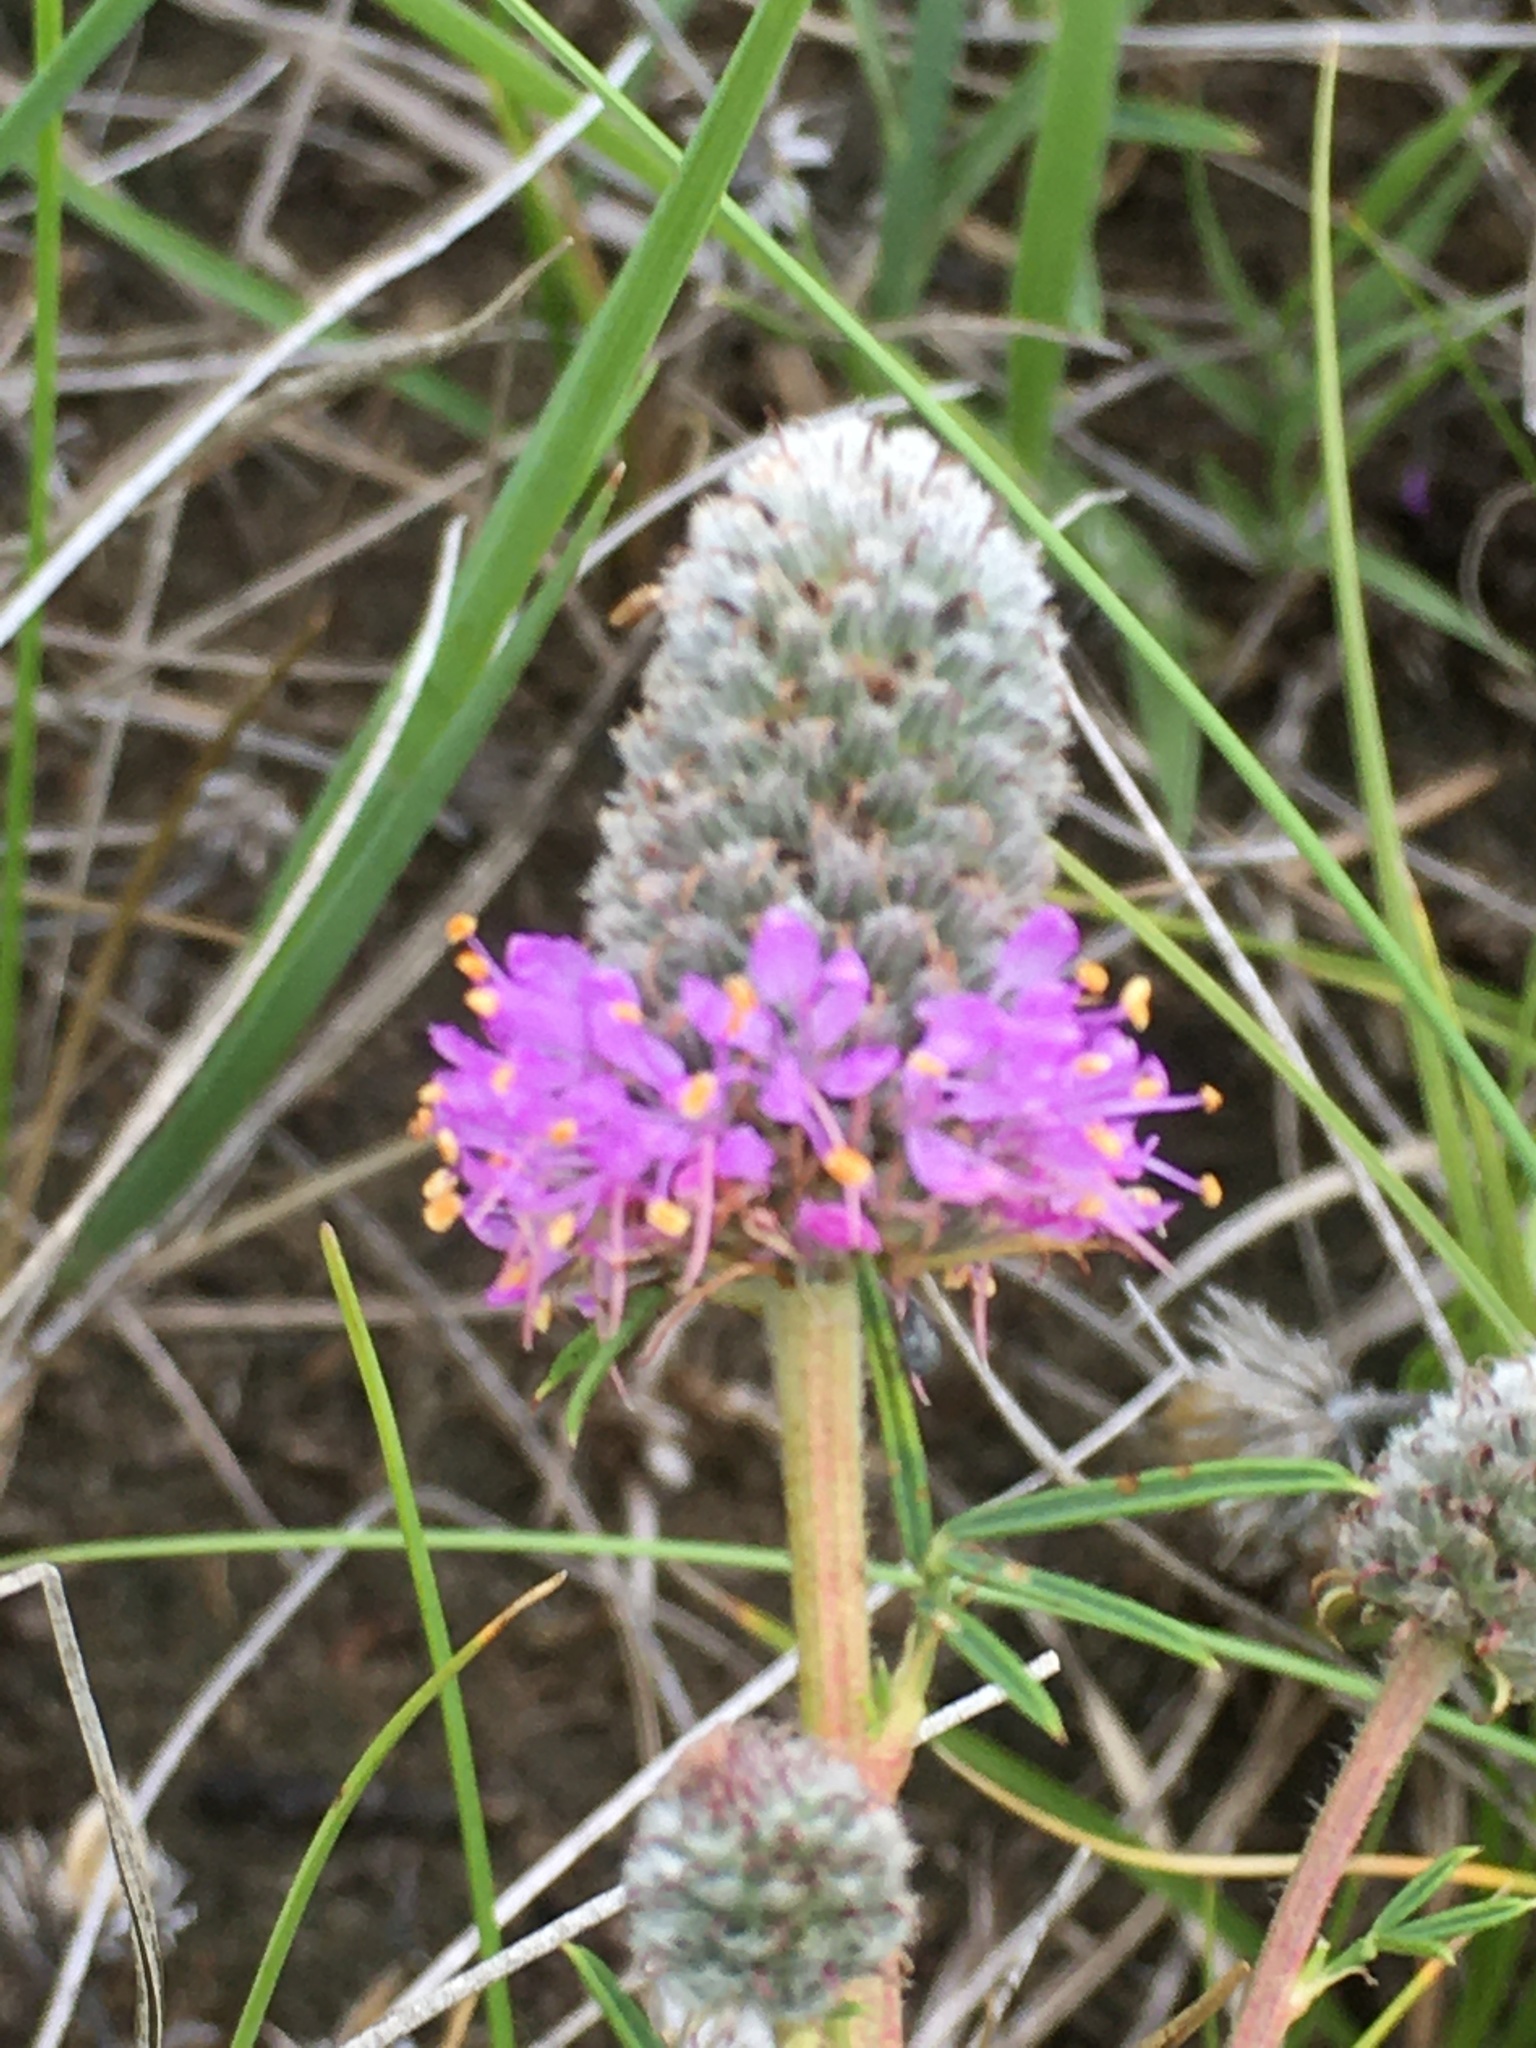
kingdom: Plantae
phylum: Tracheophyta
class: Magnoliopsida
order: Fabales
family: Fabaceae
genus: Dalea
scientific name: Dalea purpurea
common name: Purple prairie-clover
